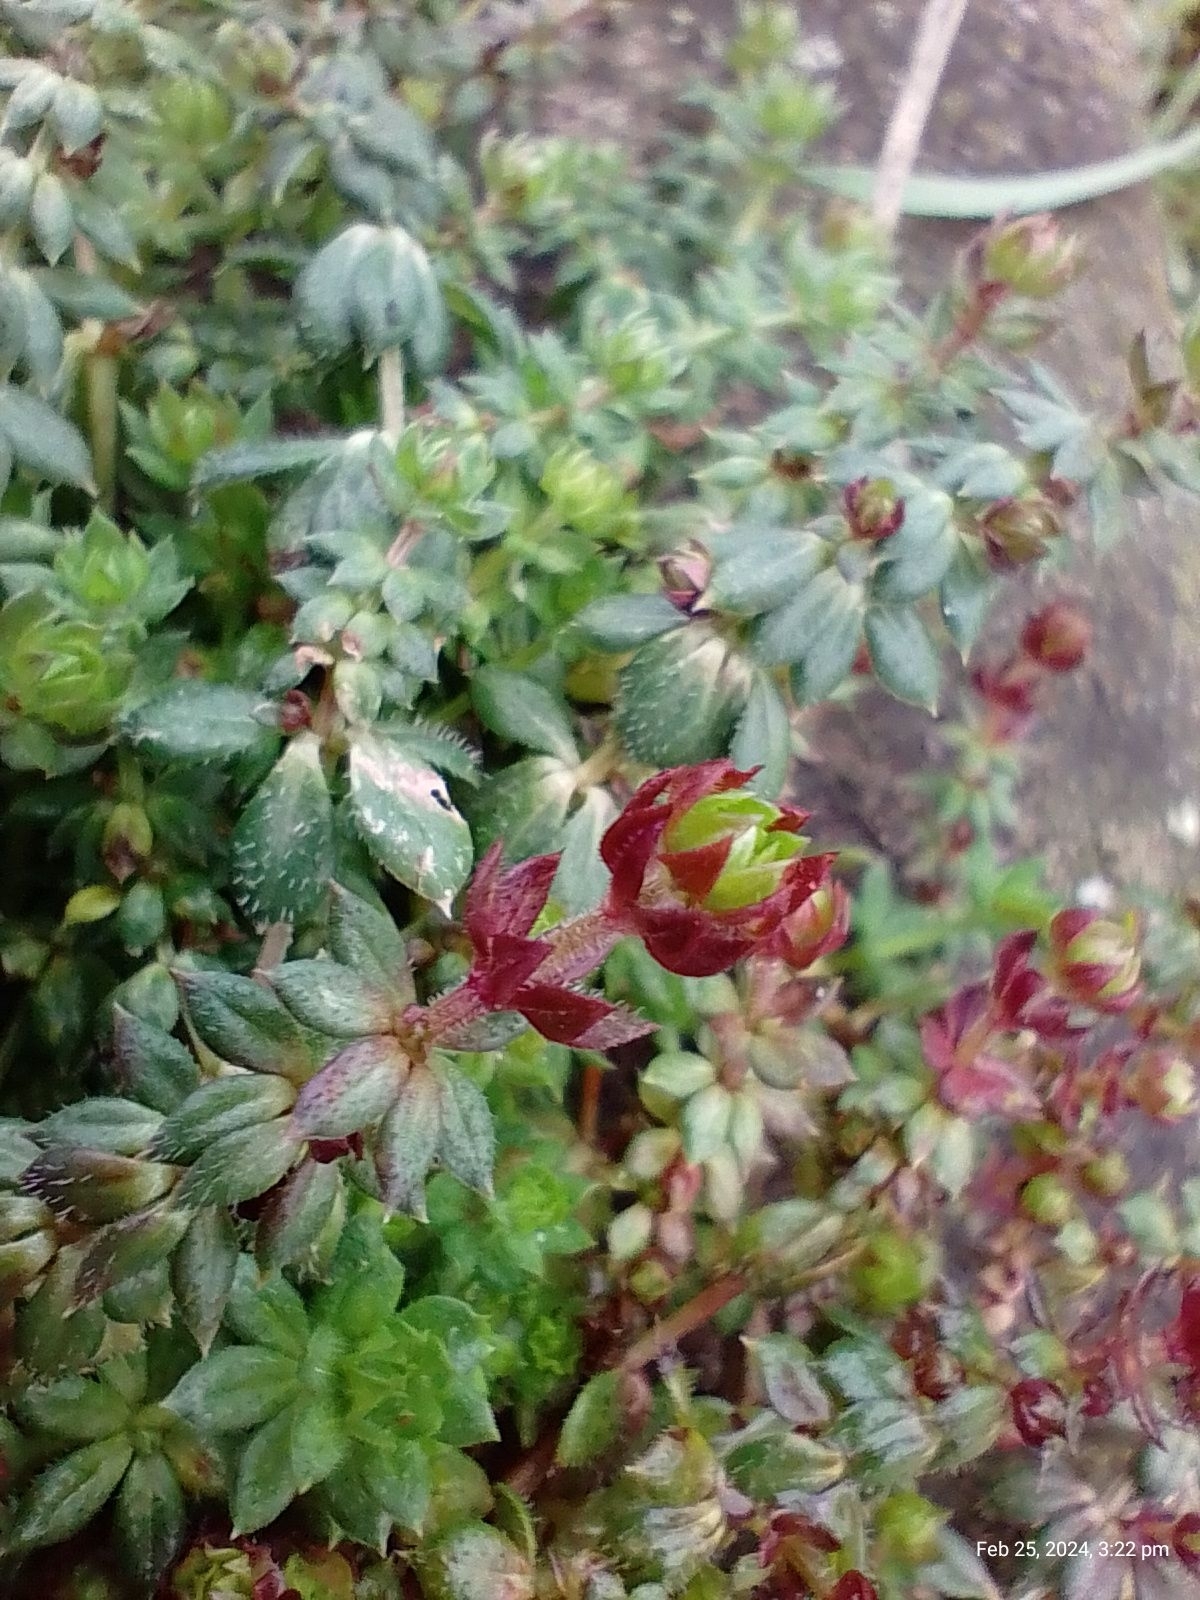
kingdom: Plantae
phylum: Tracheophyta
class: Magnoliopsida
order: Gentianales
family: Rubiaceae
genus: Sherardia
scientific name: Sherardia arvensis
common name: Field madder
